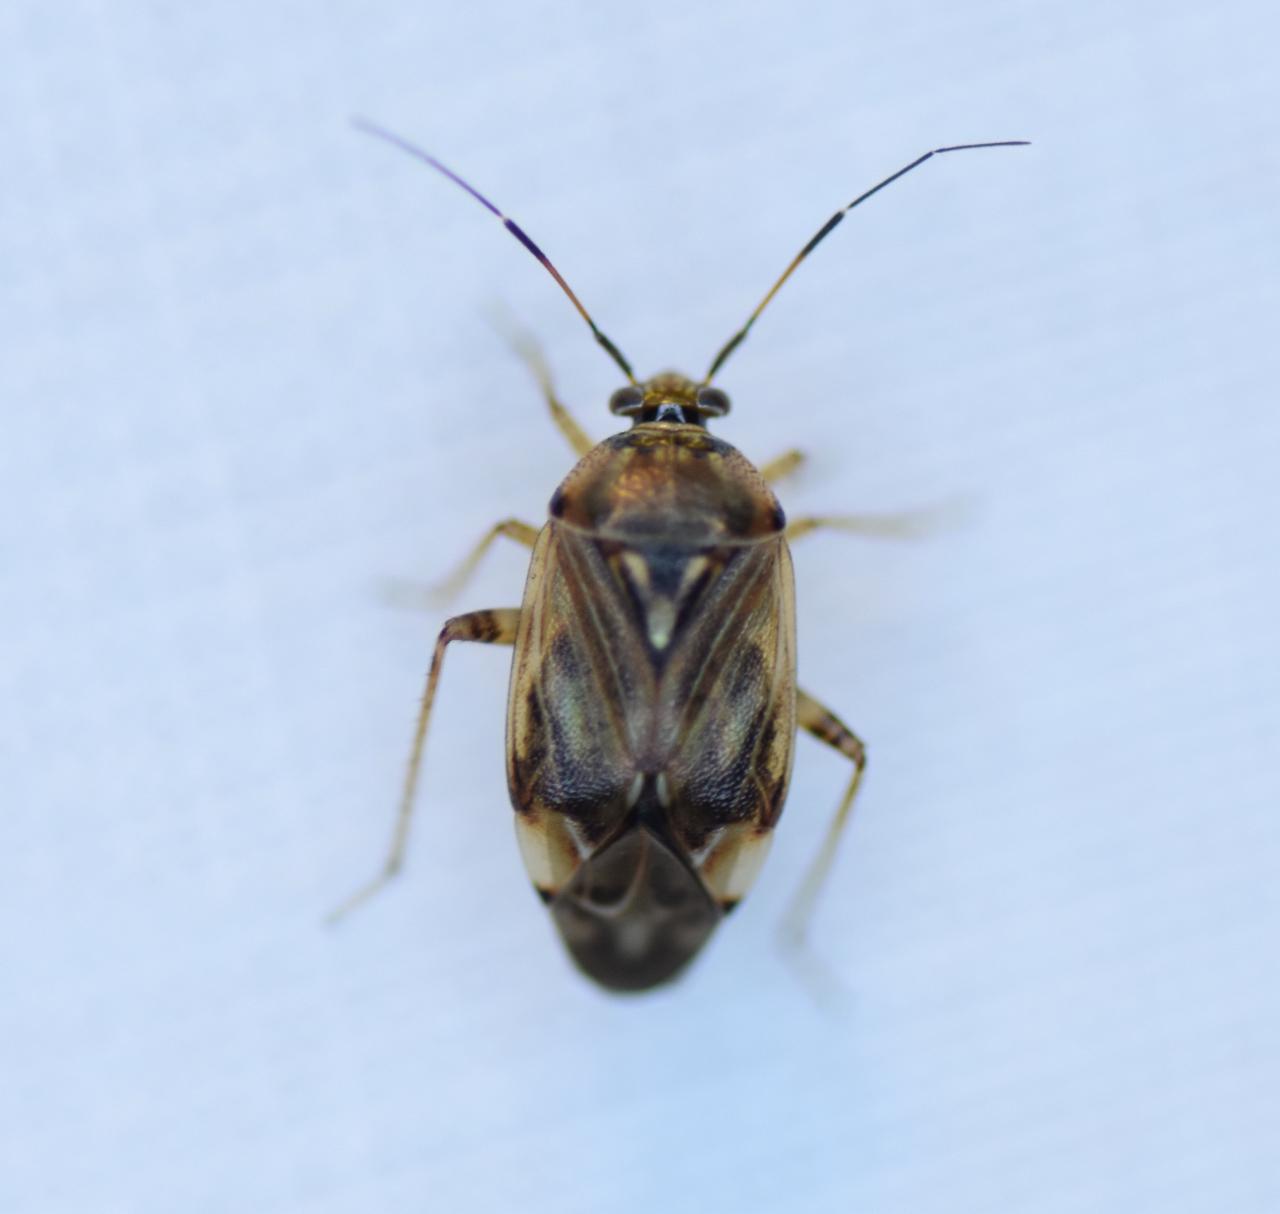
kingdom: Animalia
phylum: Arthropoda
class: Insecta
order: Hemiptera
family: Miridae
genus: Lygus
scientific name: Lygus lineolaris
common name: North american tarnished plant bug
